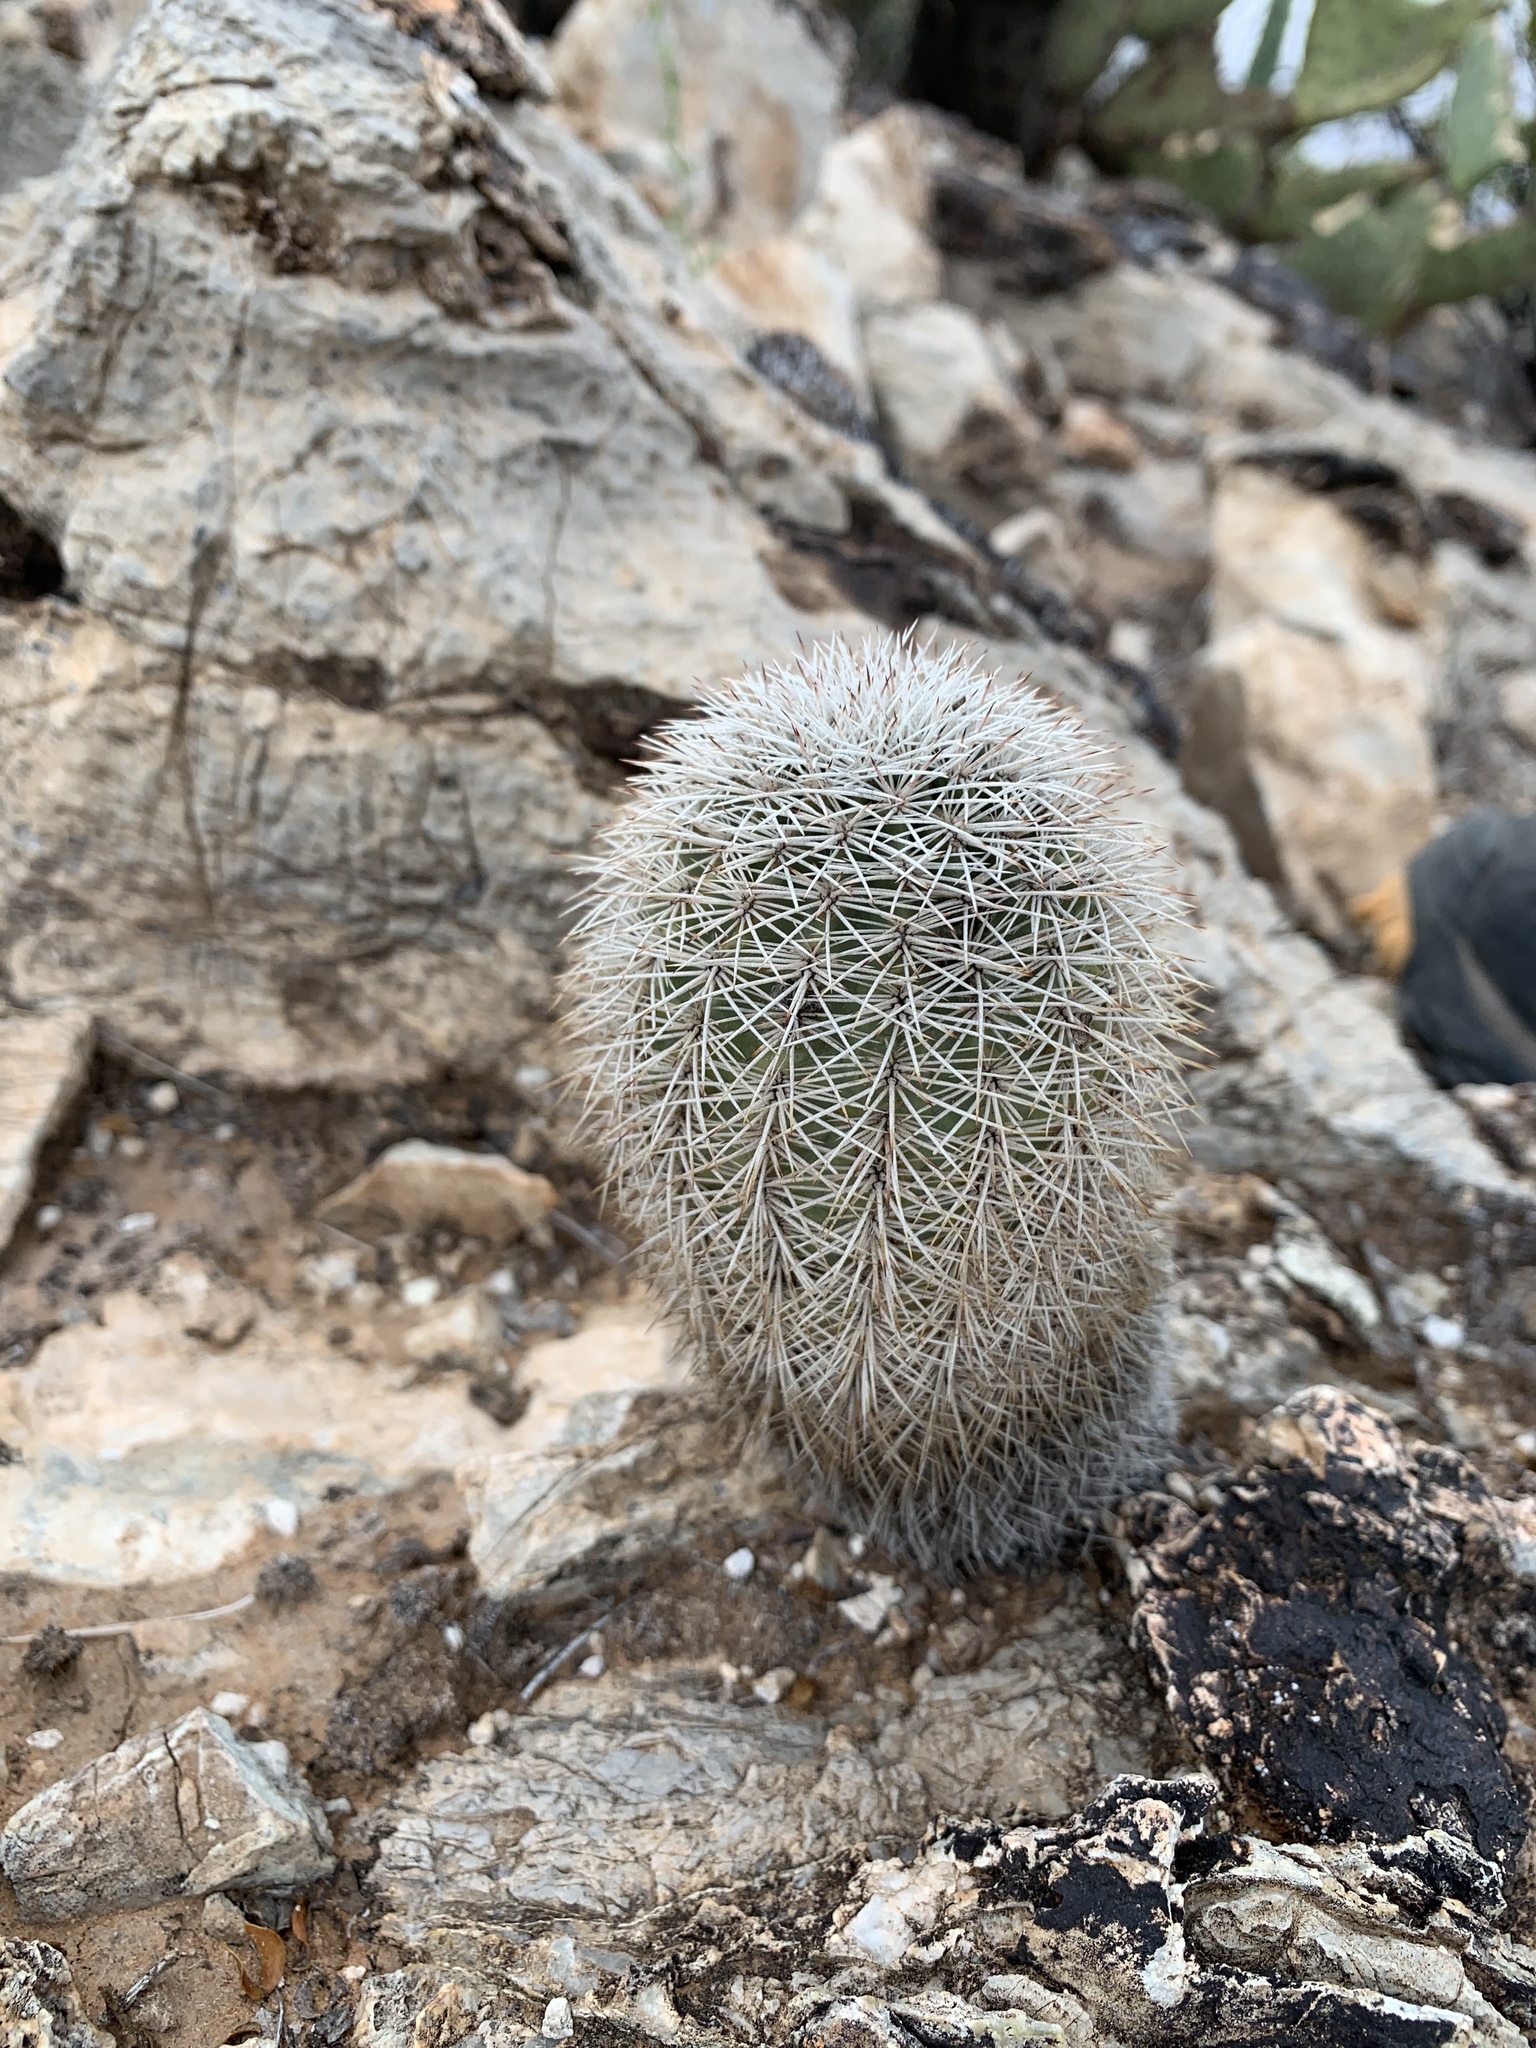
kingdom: Plantae
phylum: Tracheophyta
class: Magnoliopsida
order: Caryophyllales
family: Cactaceae
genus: Echinocereus
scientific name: Echinocereus dasyacanthus
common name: Spiny hedgehog cactus
